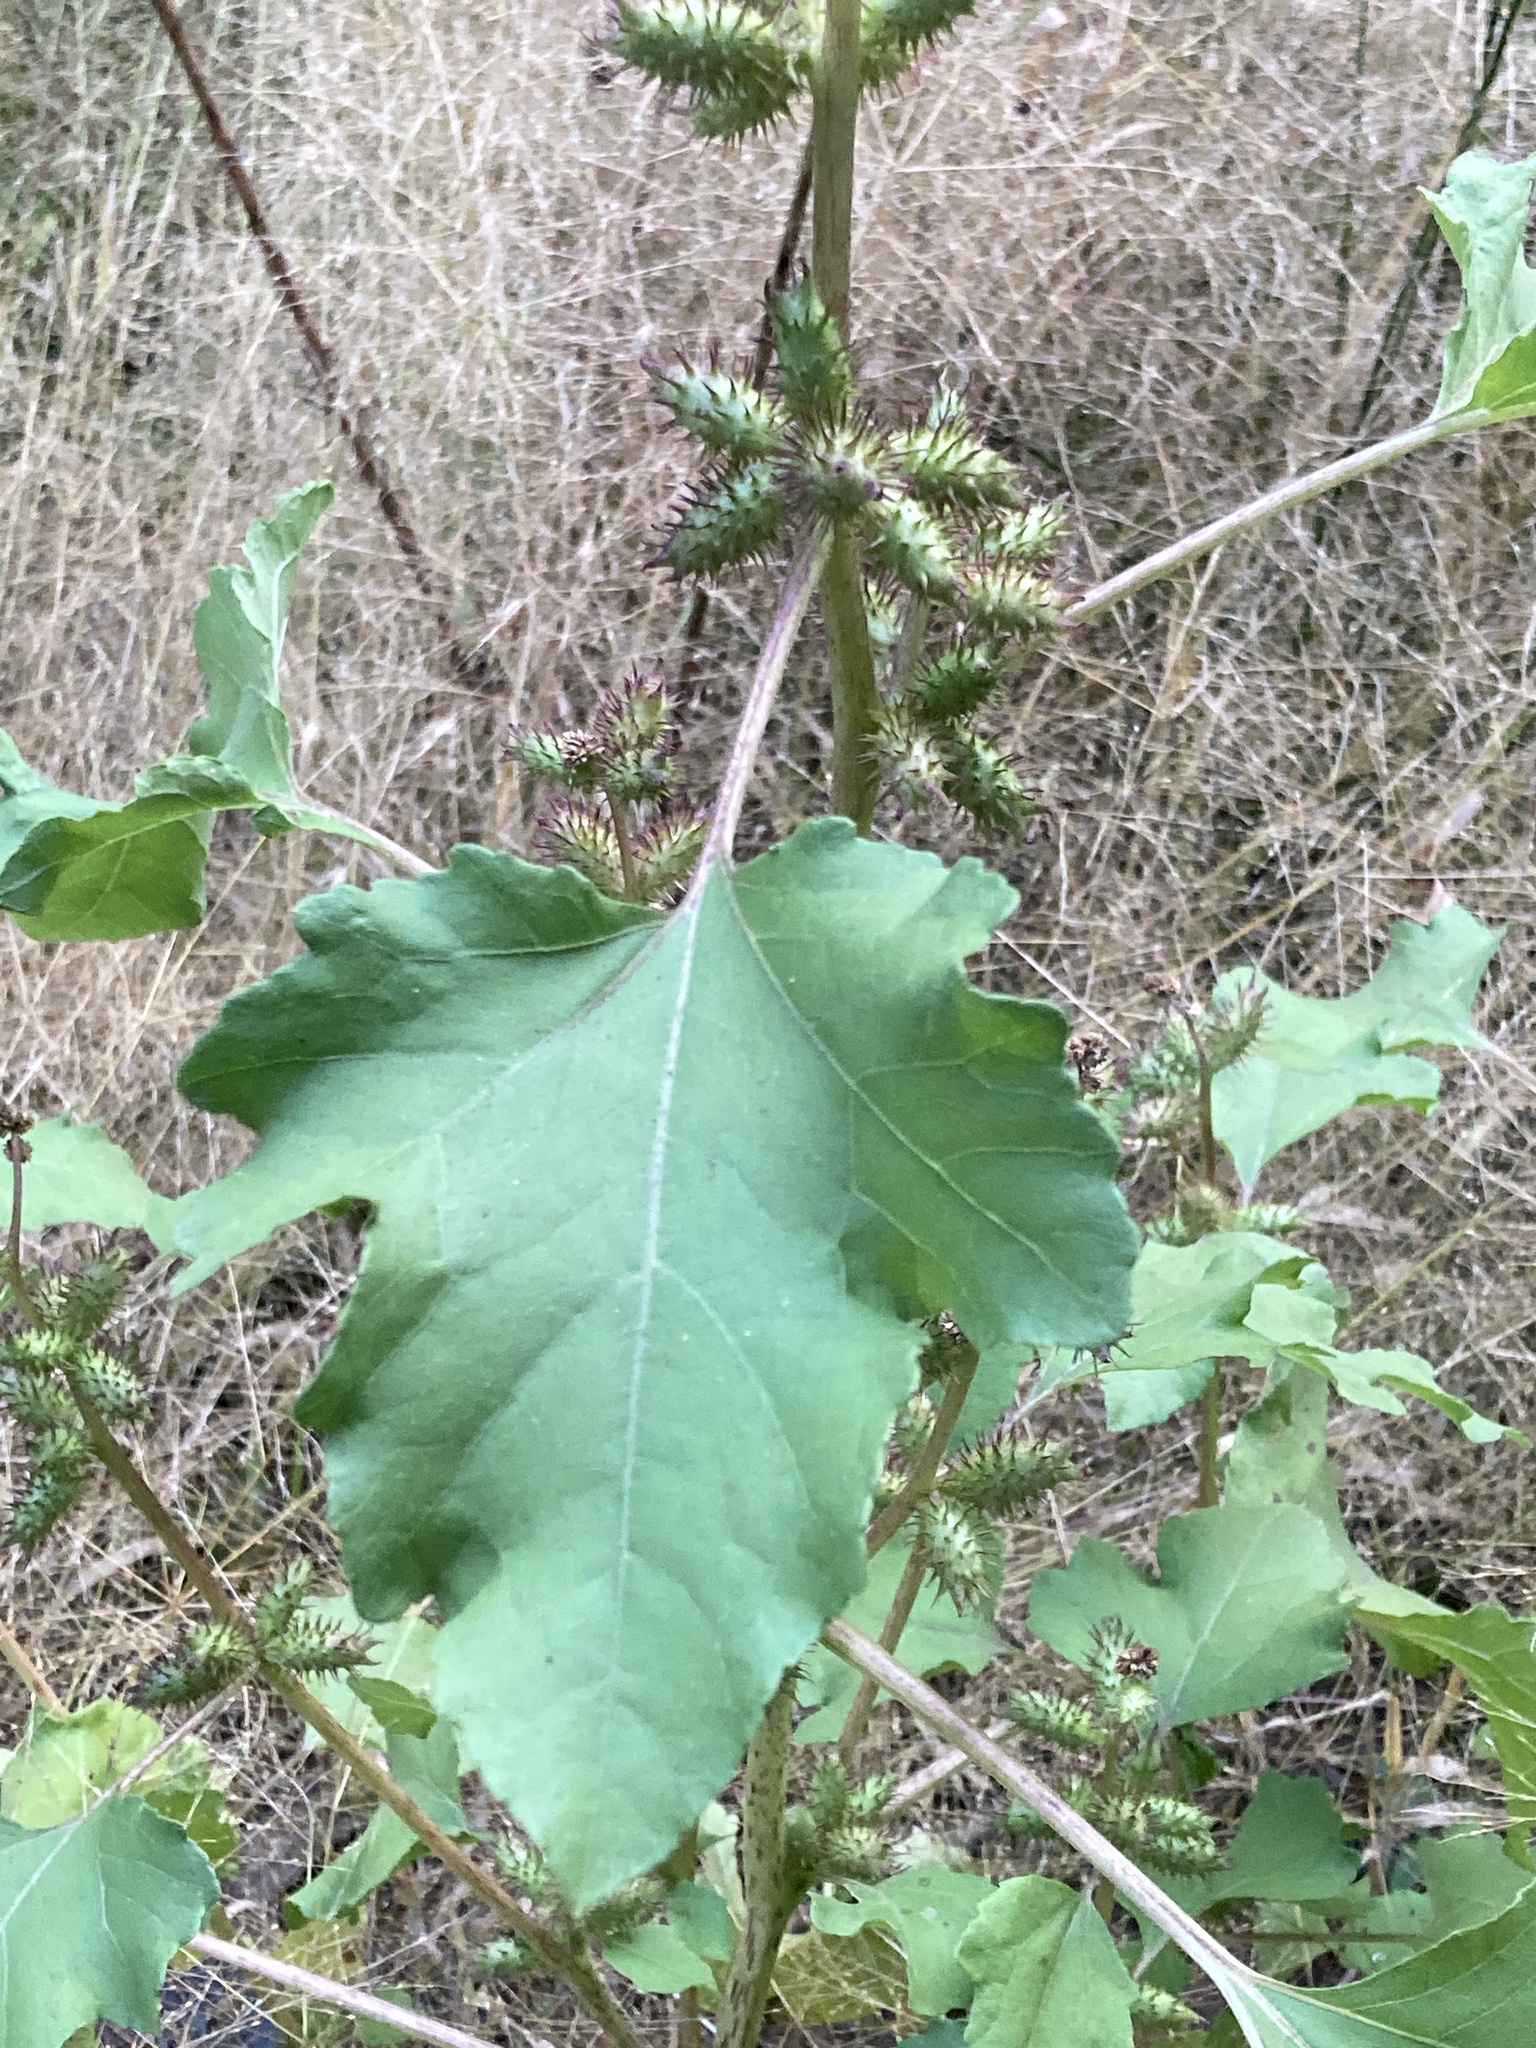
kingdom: Plantae
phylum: Tracheophyta
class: Magnoliopsida
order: Asterales
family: Asteraceae
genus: Xanthium
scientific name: Xanthium strumarium
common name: Rough cocklebur
